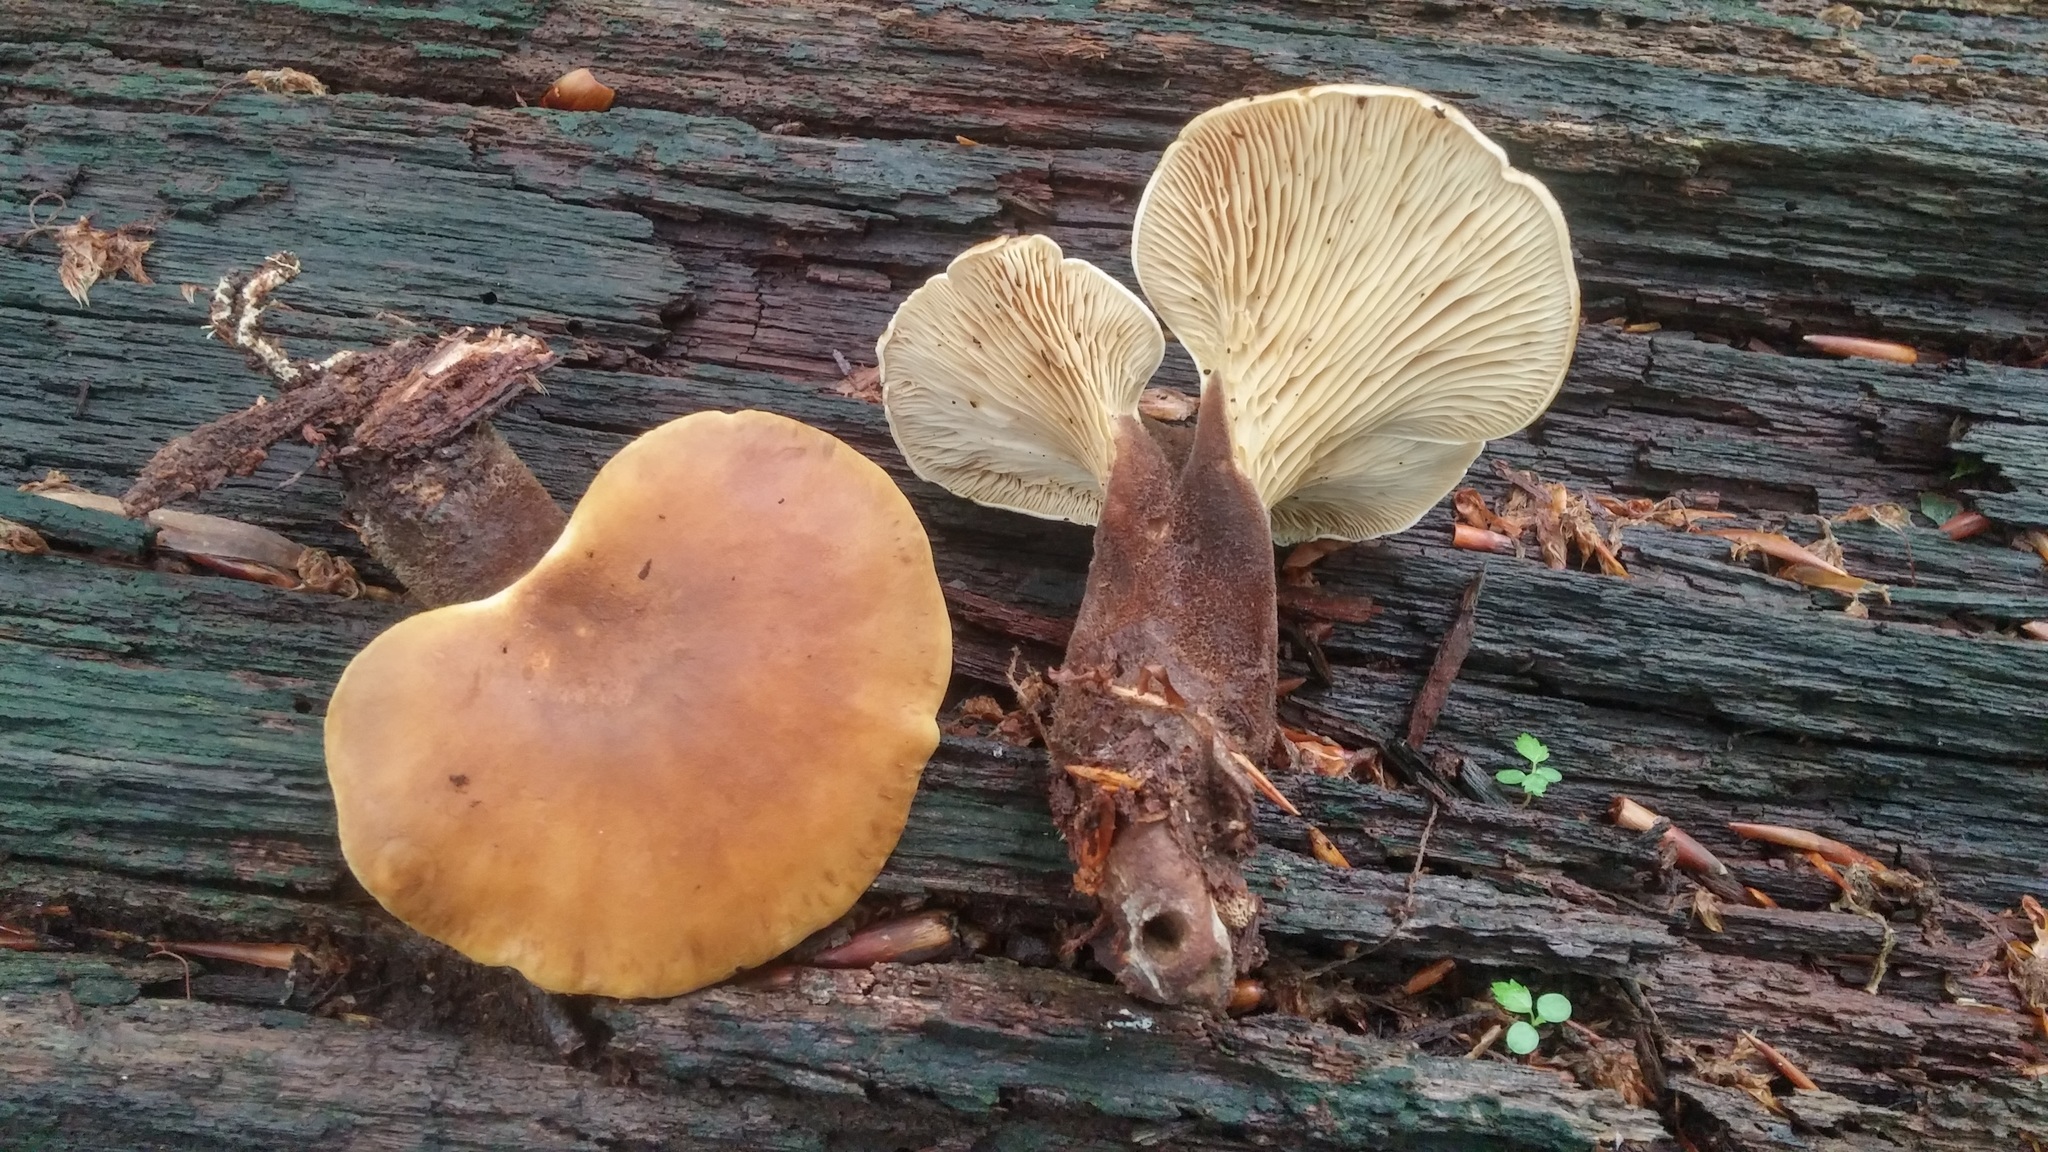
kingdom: Fungi
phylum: Basidiomycota
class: Agaricomycetes
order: Boletales
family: Tapinellaceae
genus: Tapinella
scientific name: Tapinella atrotomentosa
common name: Velvet rollrim
